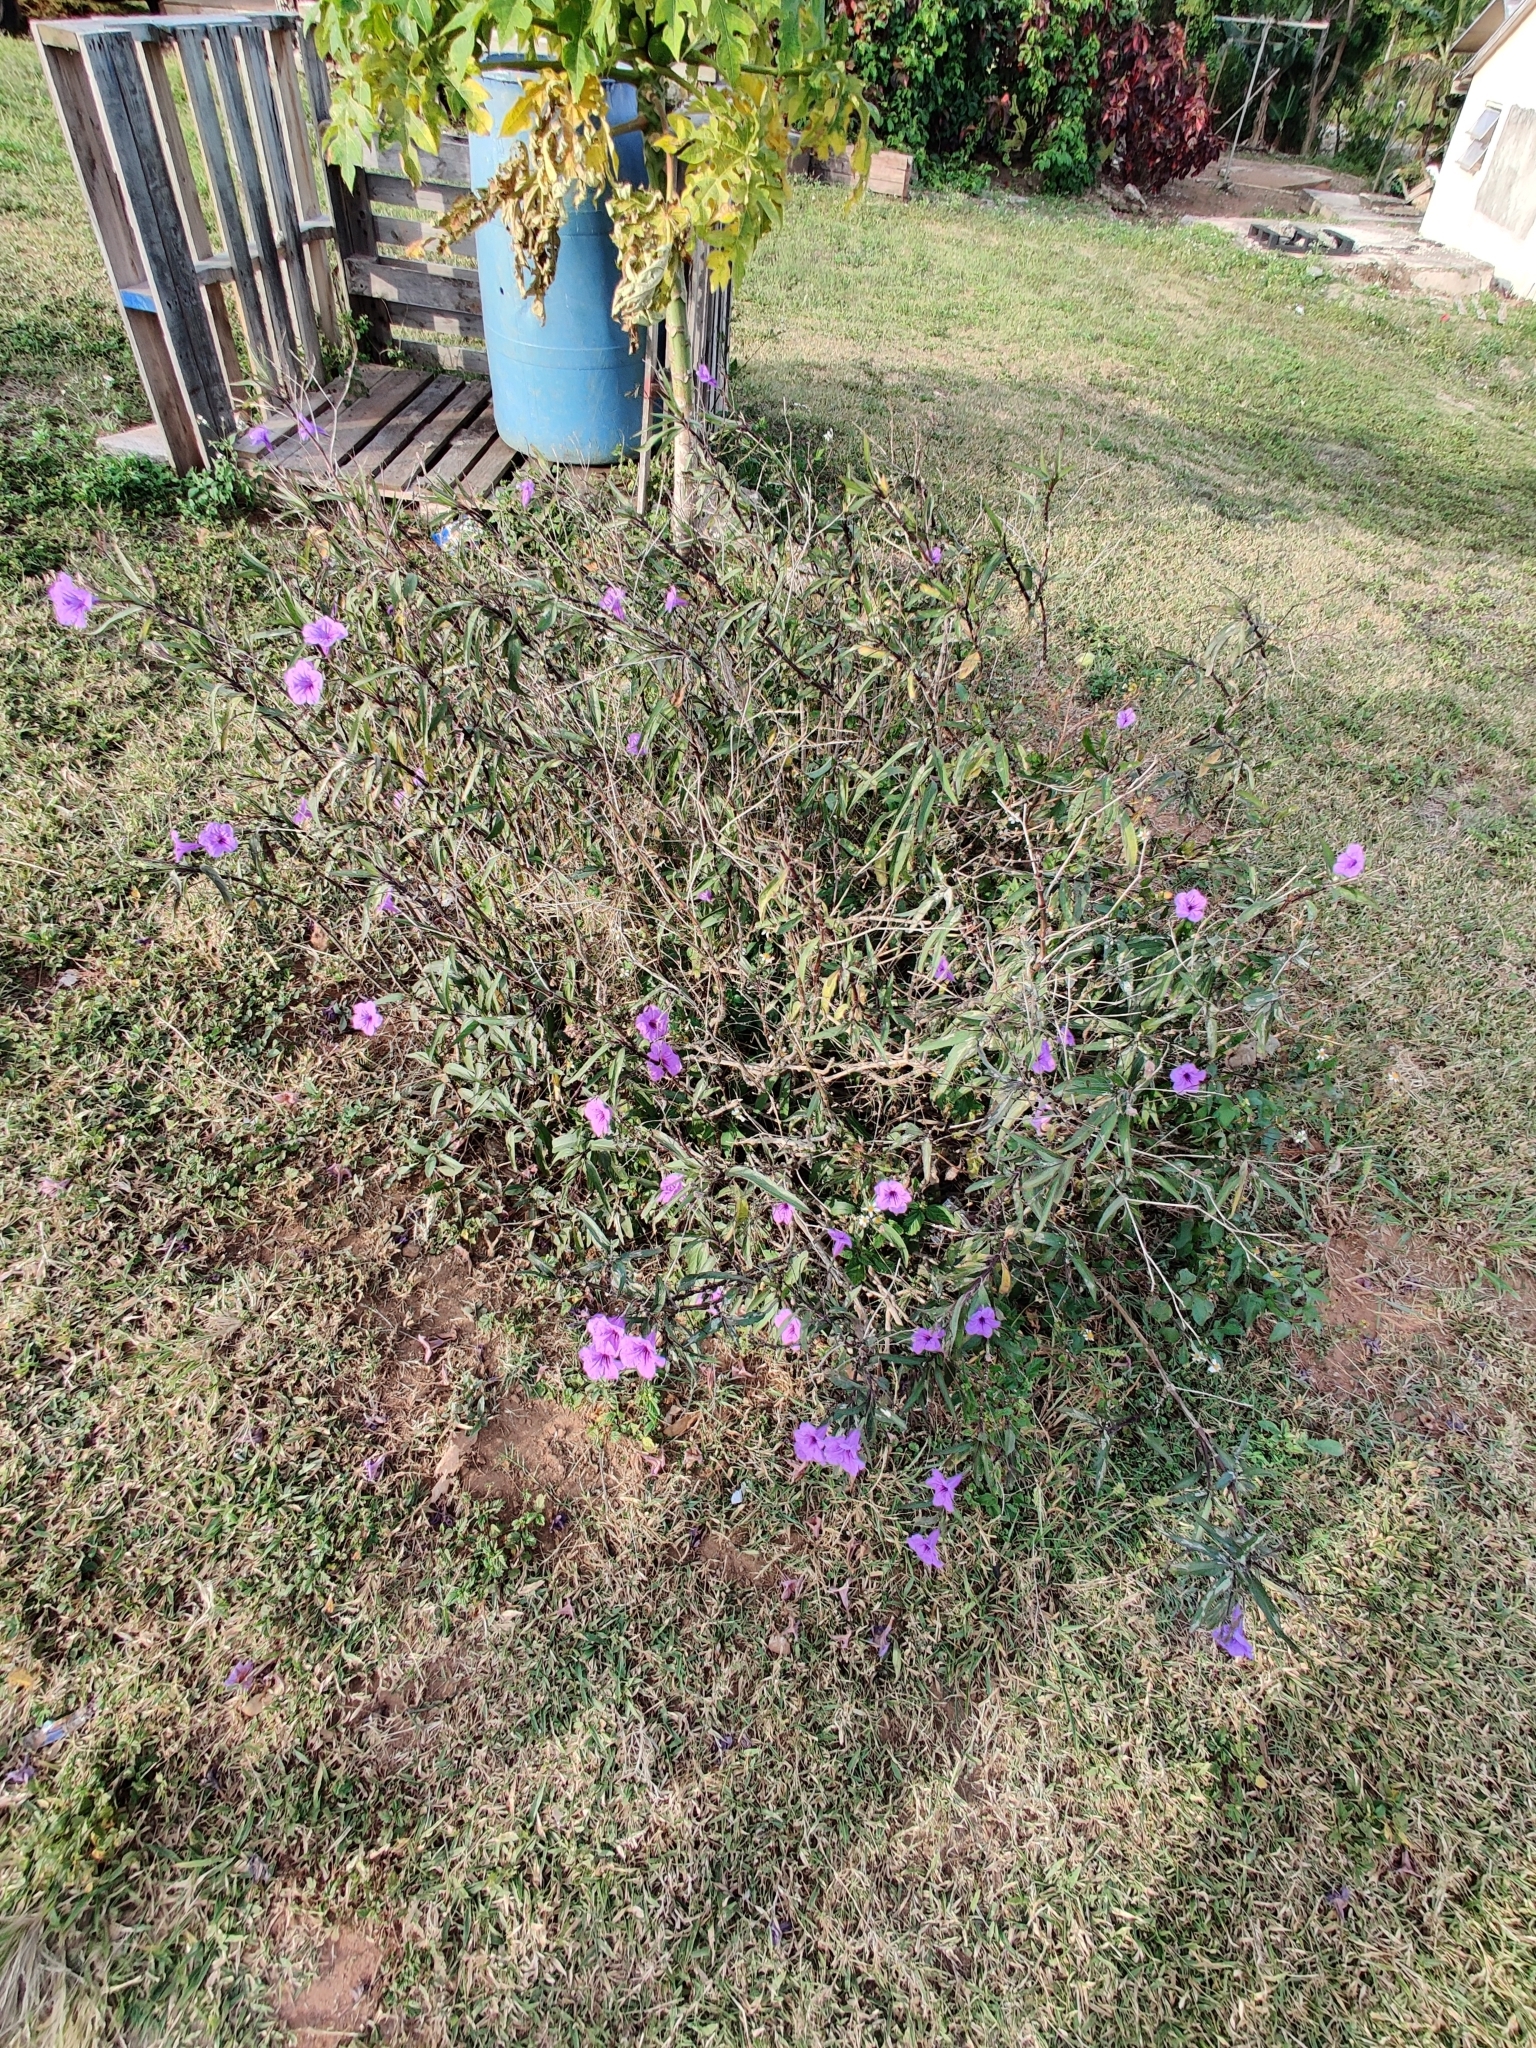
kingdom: Plantae
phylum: Tracheophyta
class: Magnoliopsida
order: Lamiales
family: Acanthaceae
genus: Ruellia
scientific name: Ruellia simplex
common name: Softseed wild petunia
